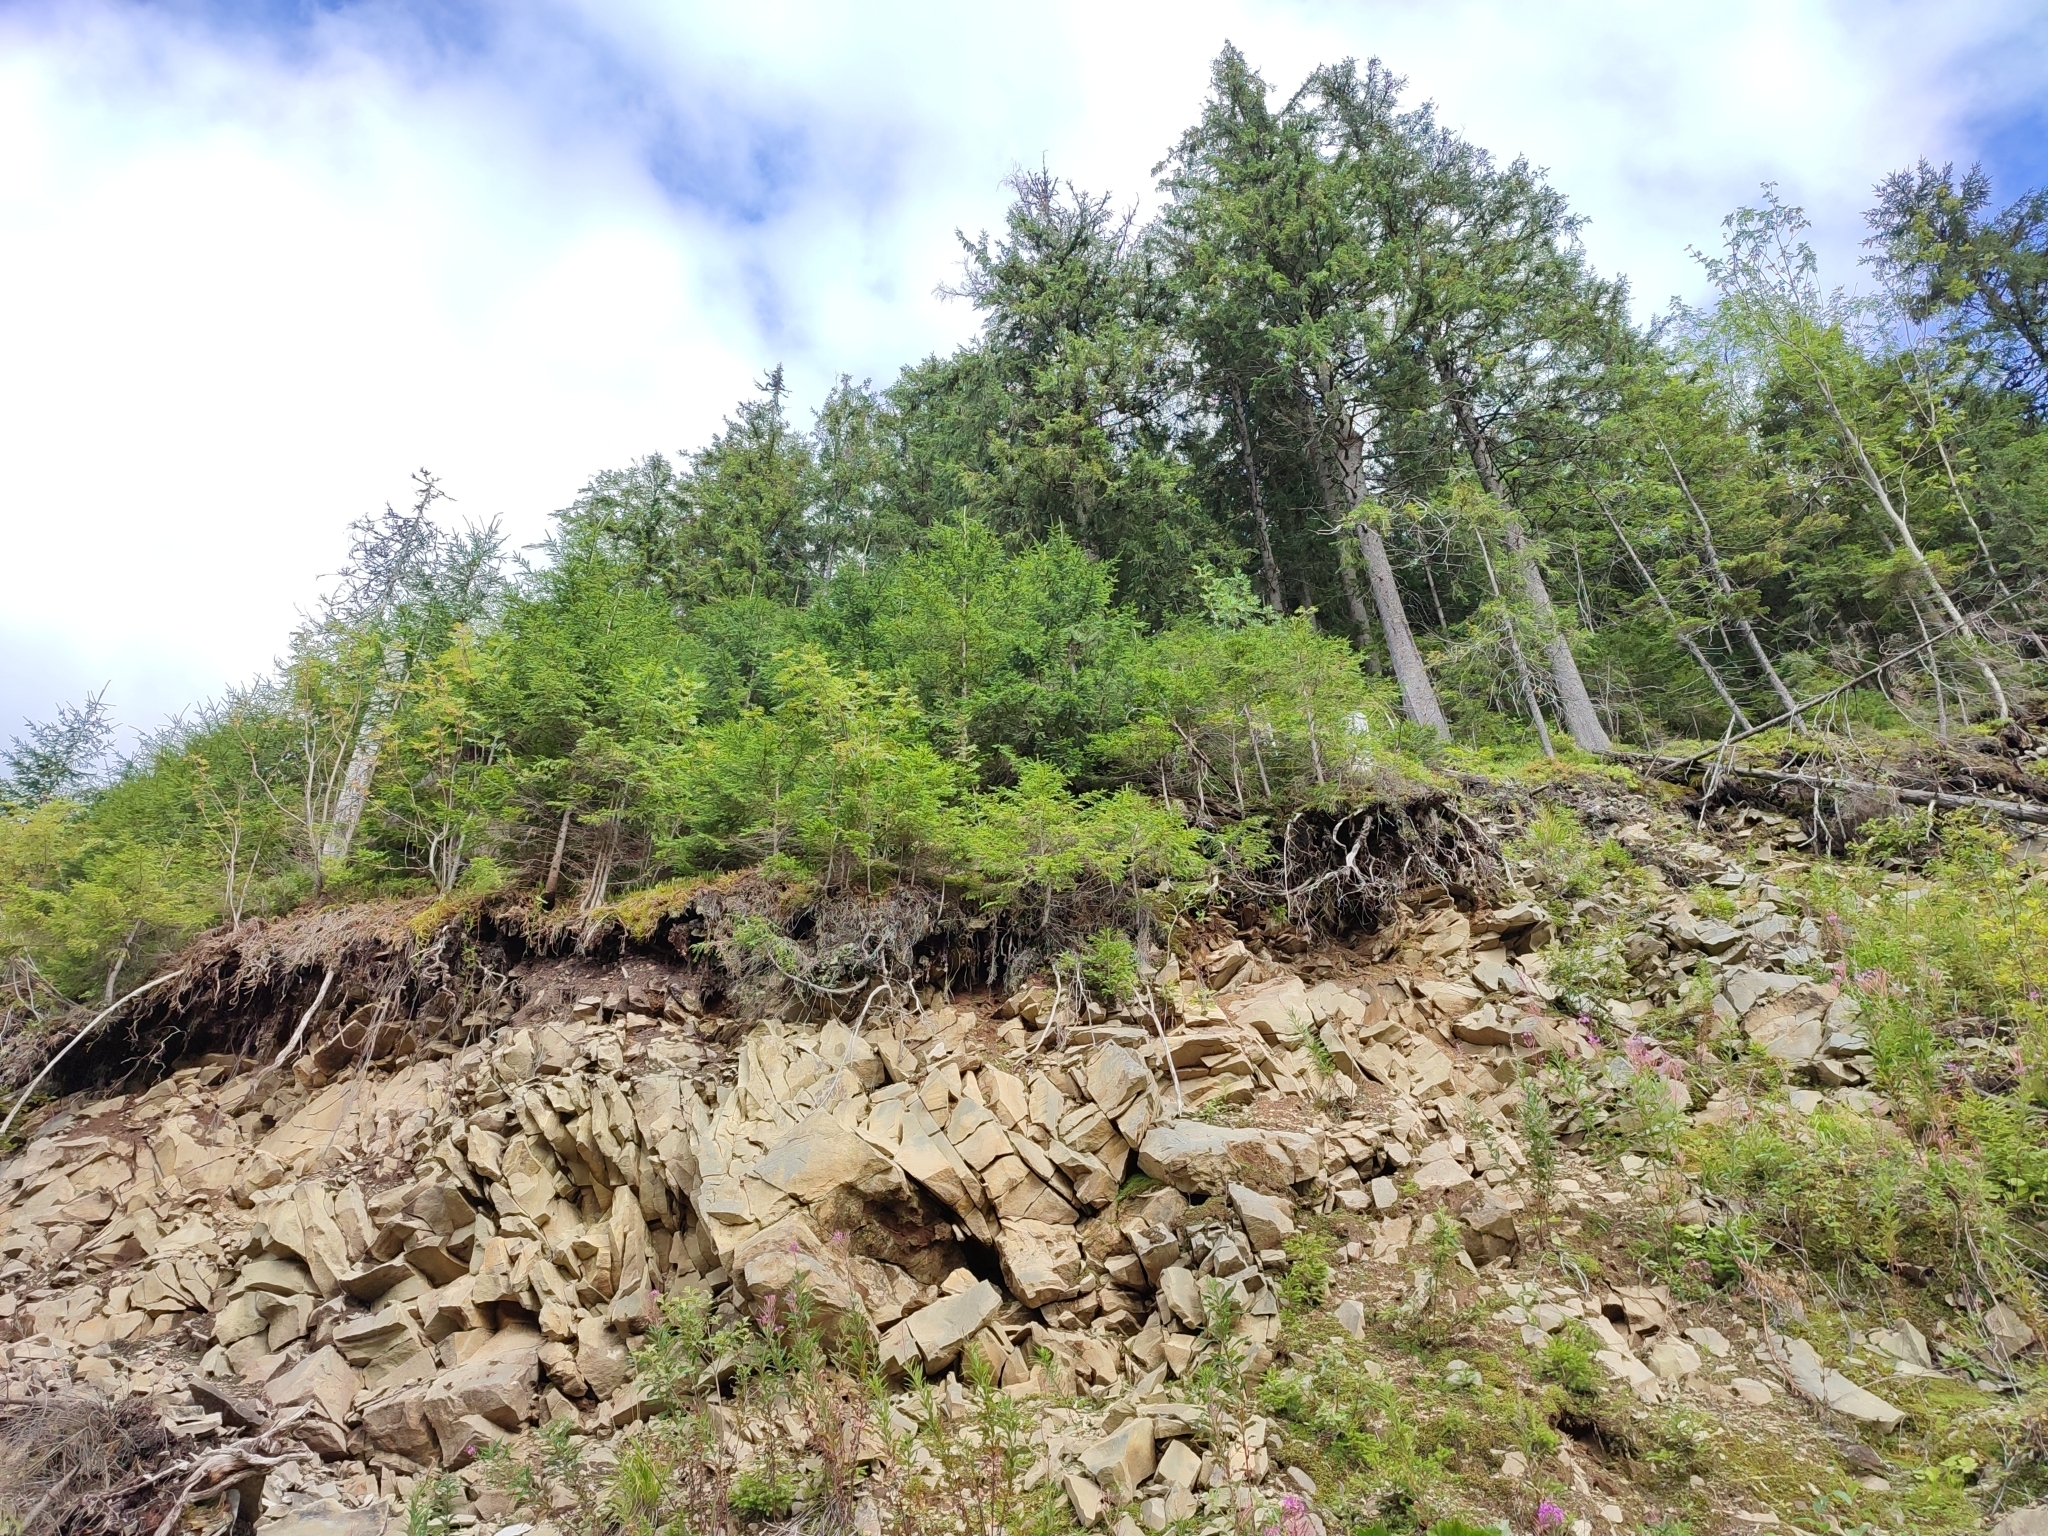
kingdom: Plantae
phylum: Tracheophyta
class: Pinopsida
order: Pinales
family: Pinaceae
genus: Picea
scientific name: Picea abies
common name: Norway spruce
